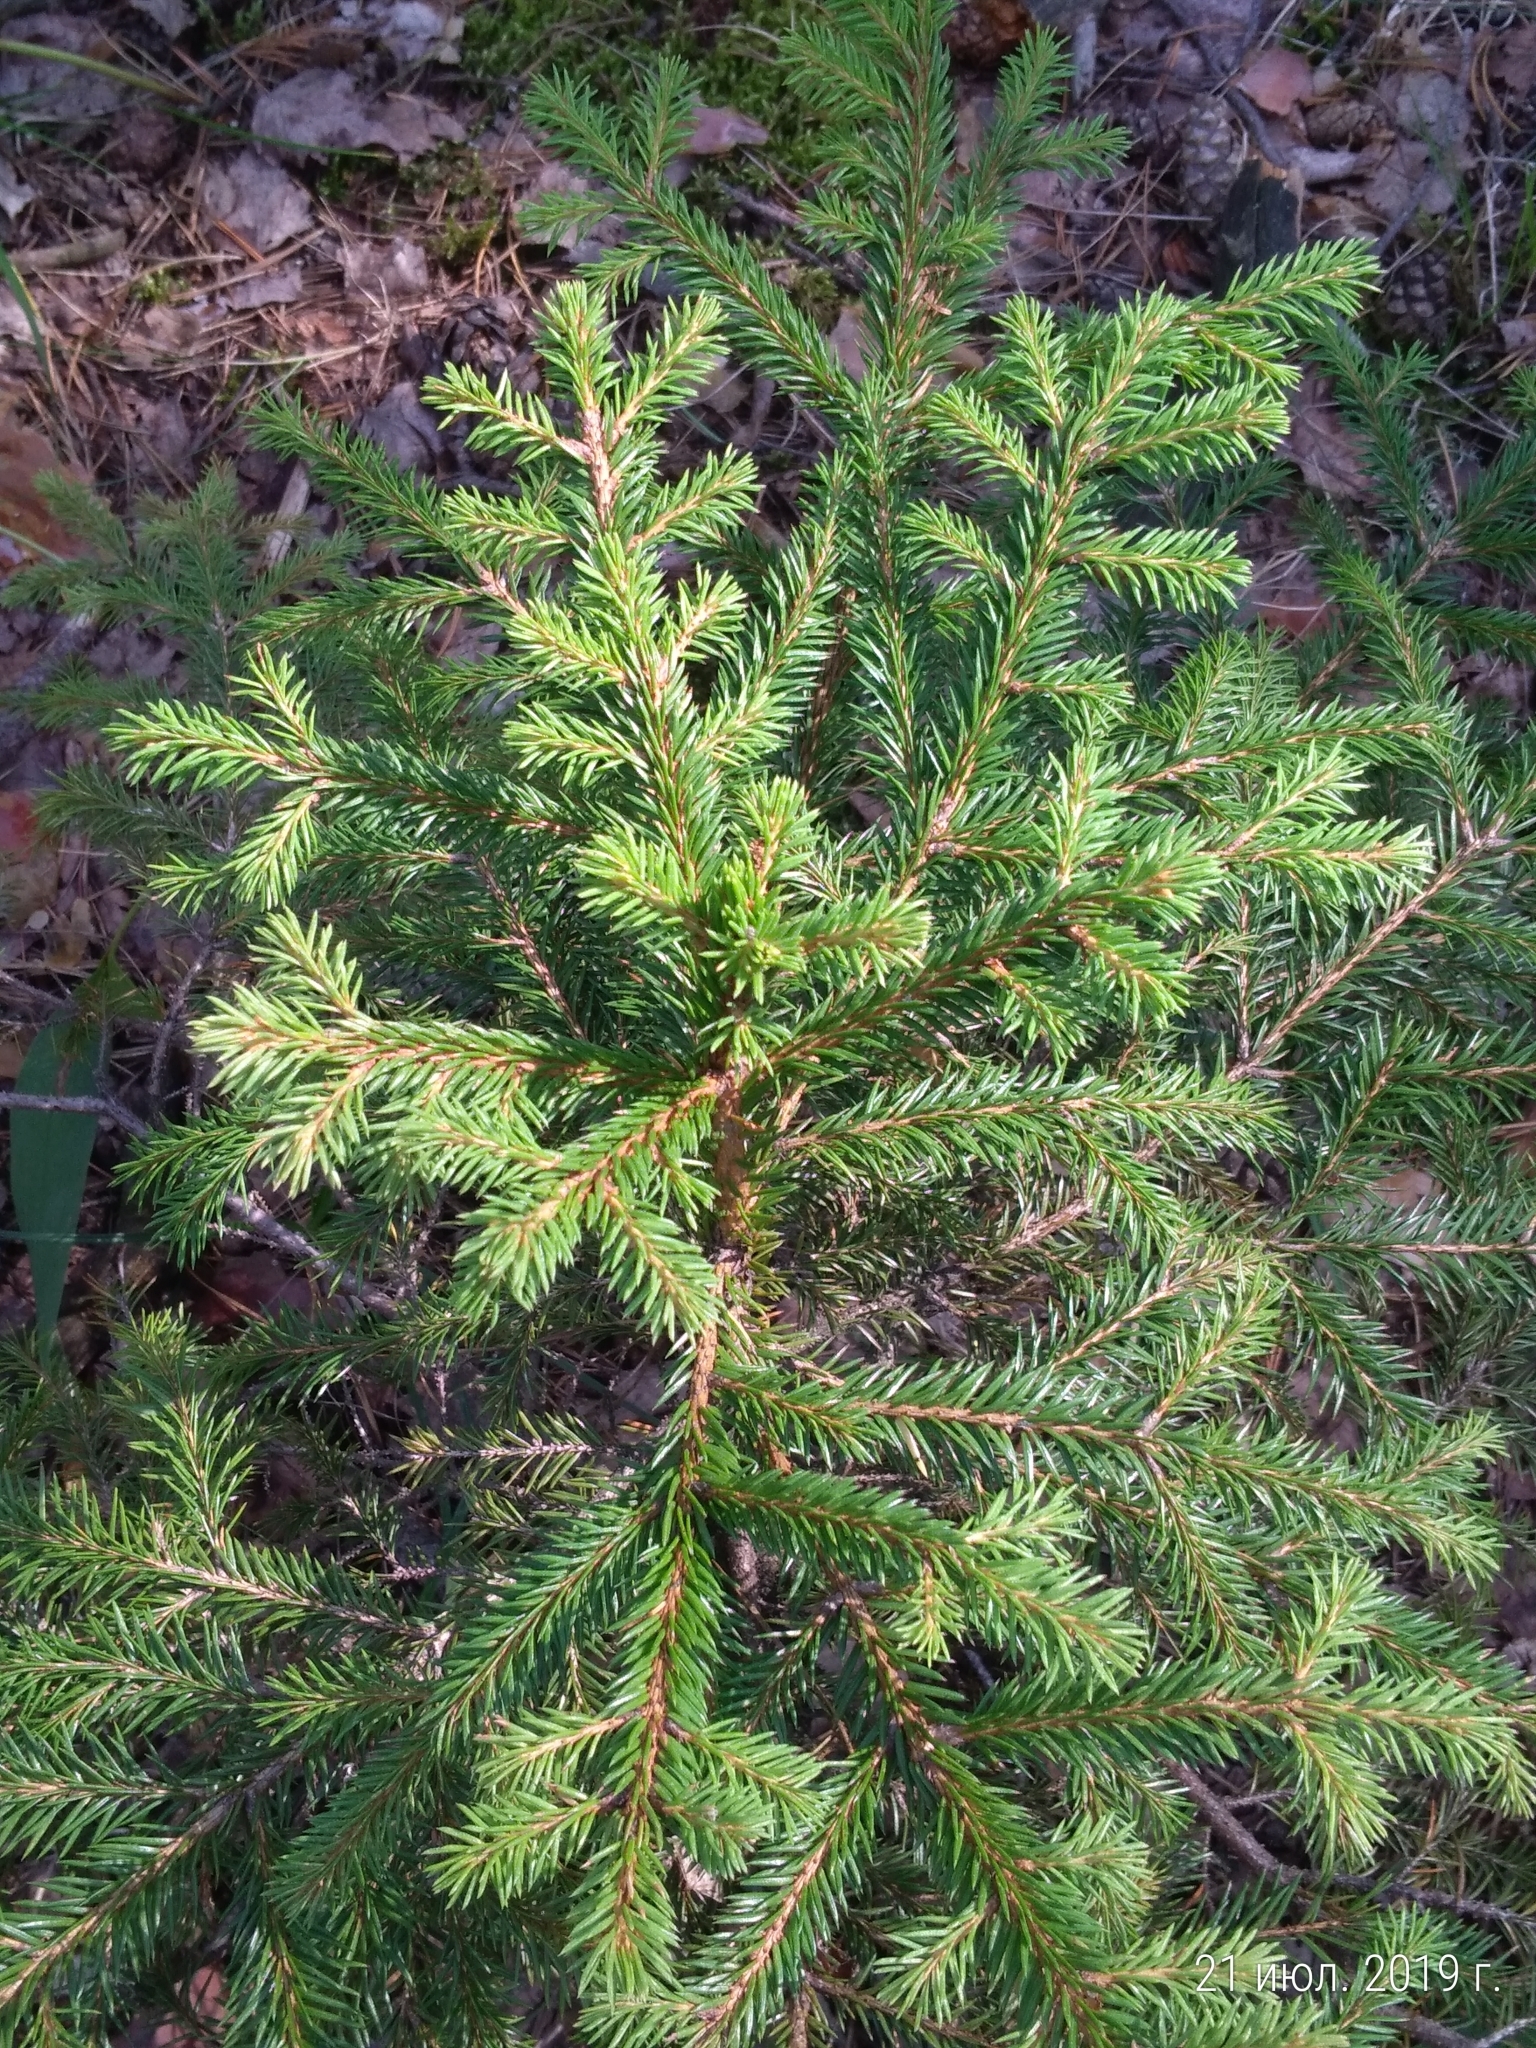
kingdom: Plantae
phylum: Tracheophyta
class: Pinopsida
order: Pinales
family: Pinaceae
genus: Picea
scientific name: Picea abies
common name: Norway spruce
